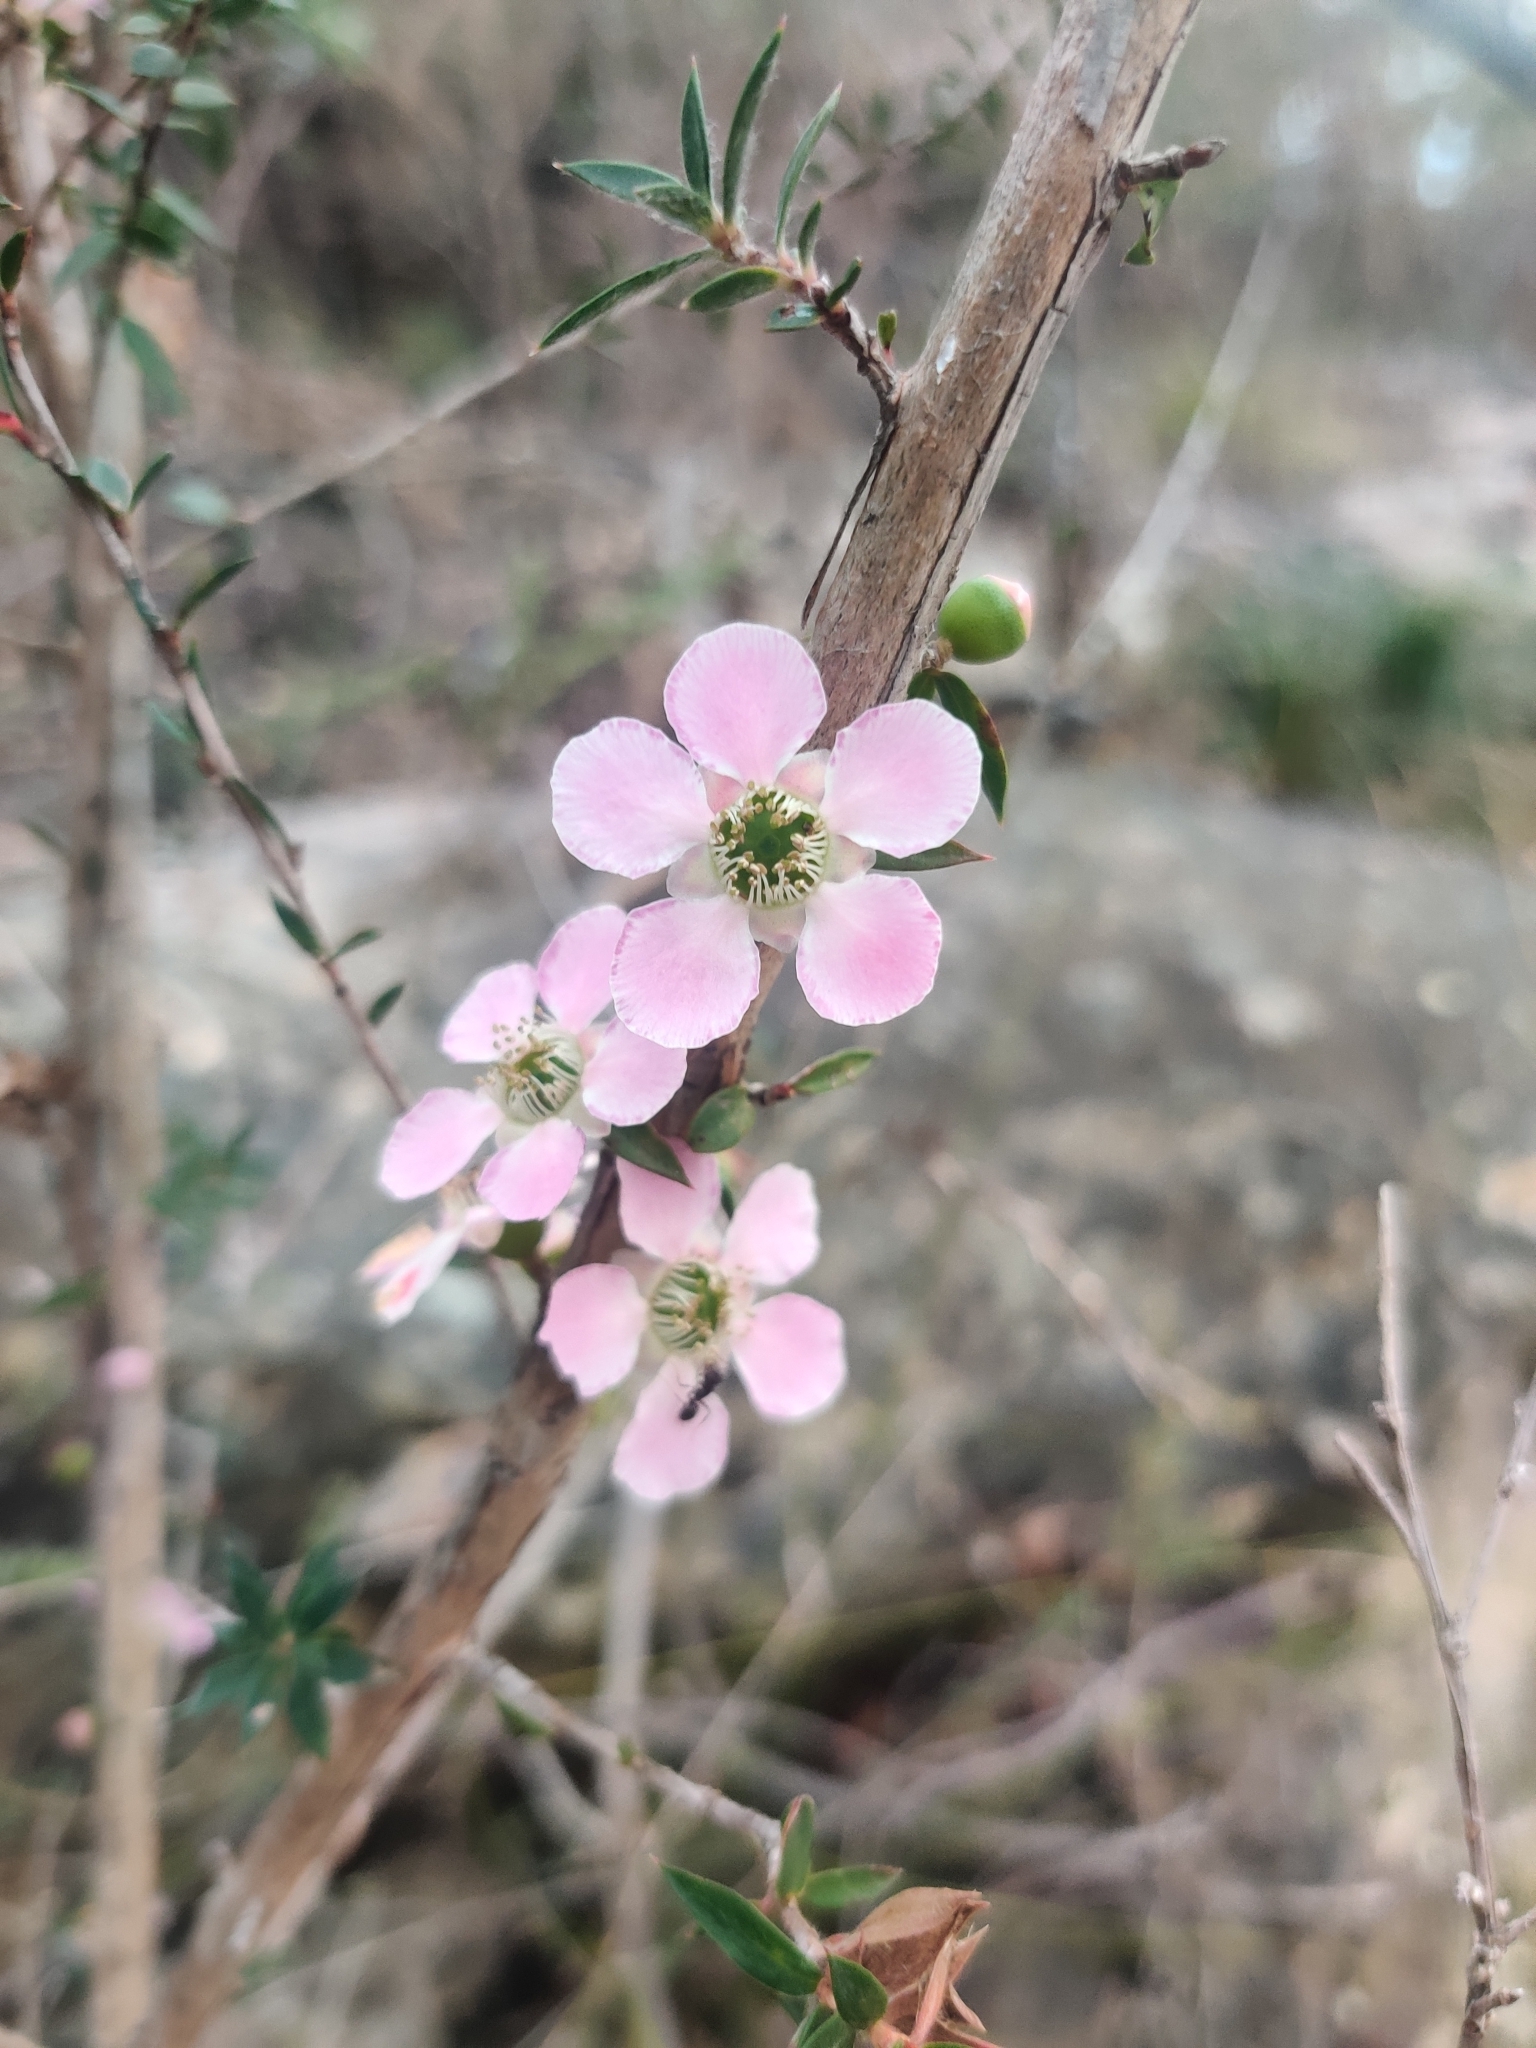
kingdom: Plantae
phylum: Tracheophyta
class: Magnoliopsida
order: Myrtales
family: Myrtaceae
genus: Leptospermum
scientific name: Leptospermum squarrosum
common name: Peach-blossom teatree
